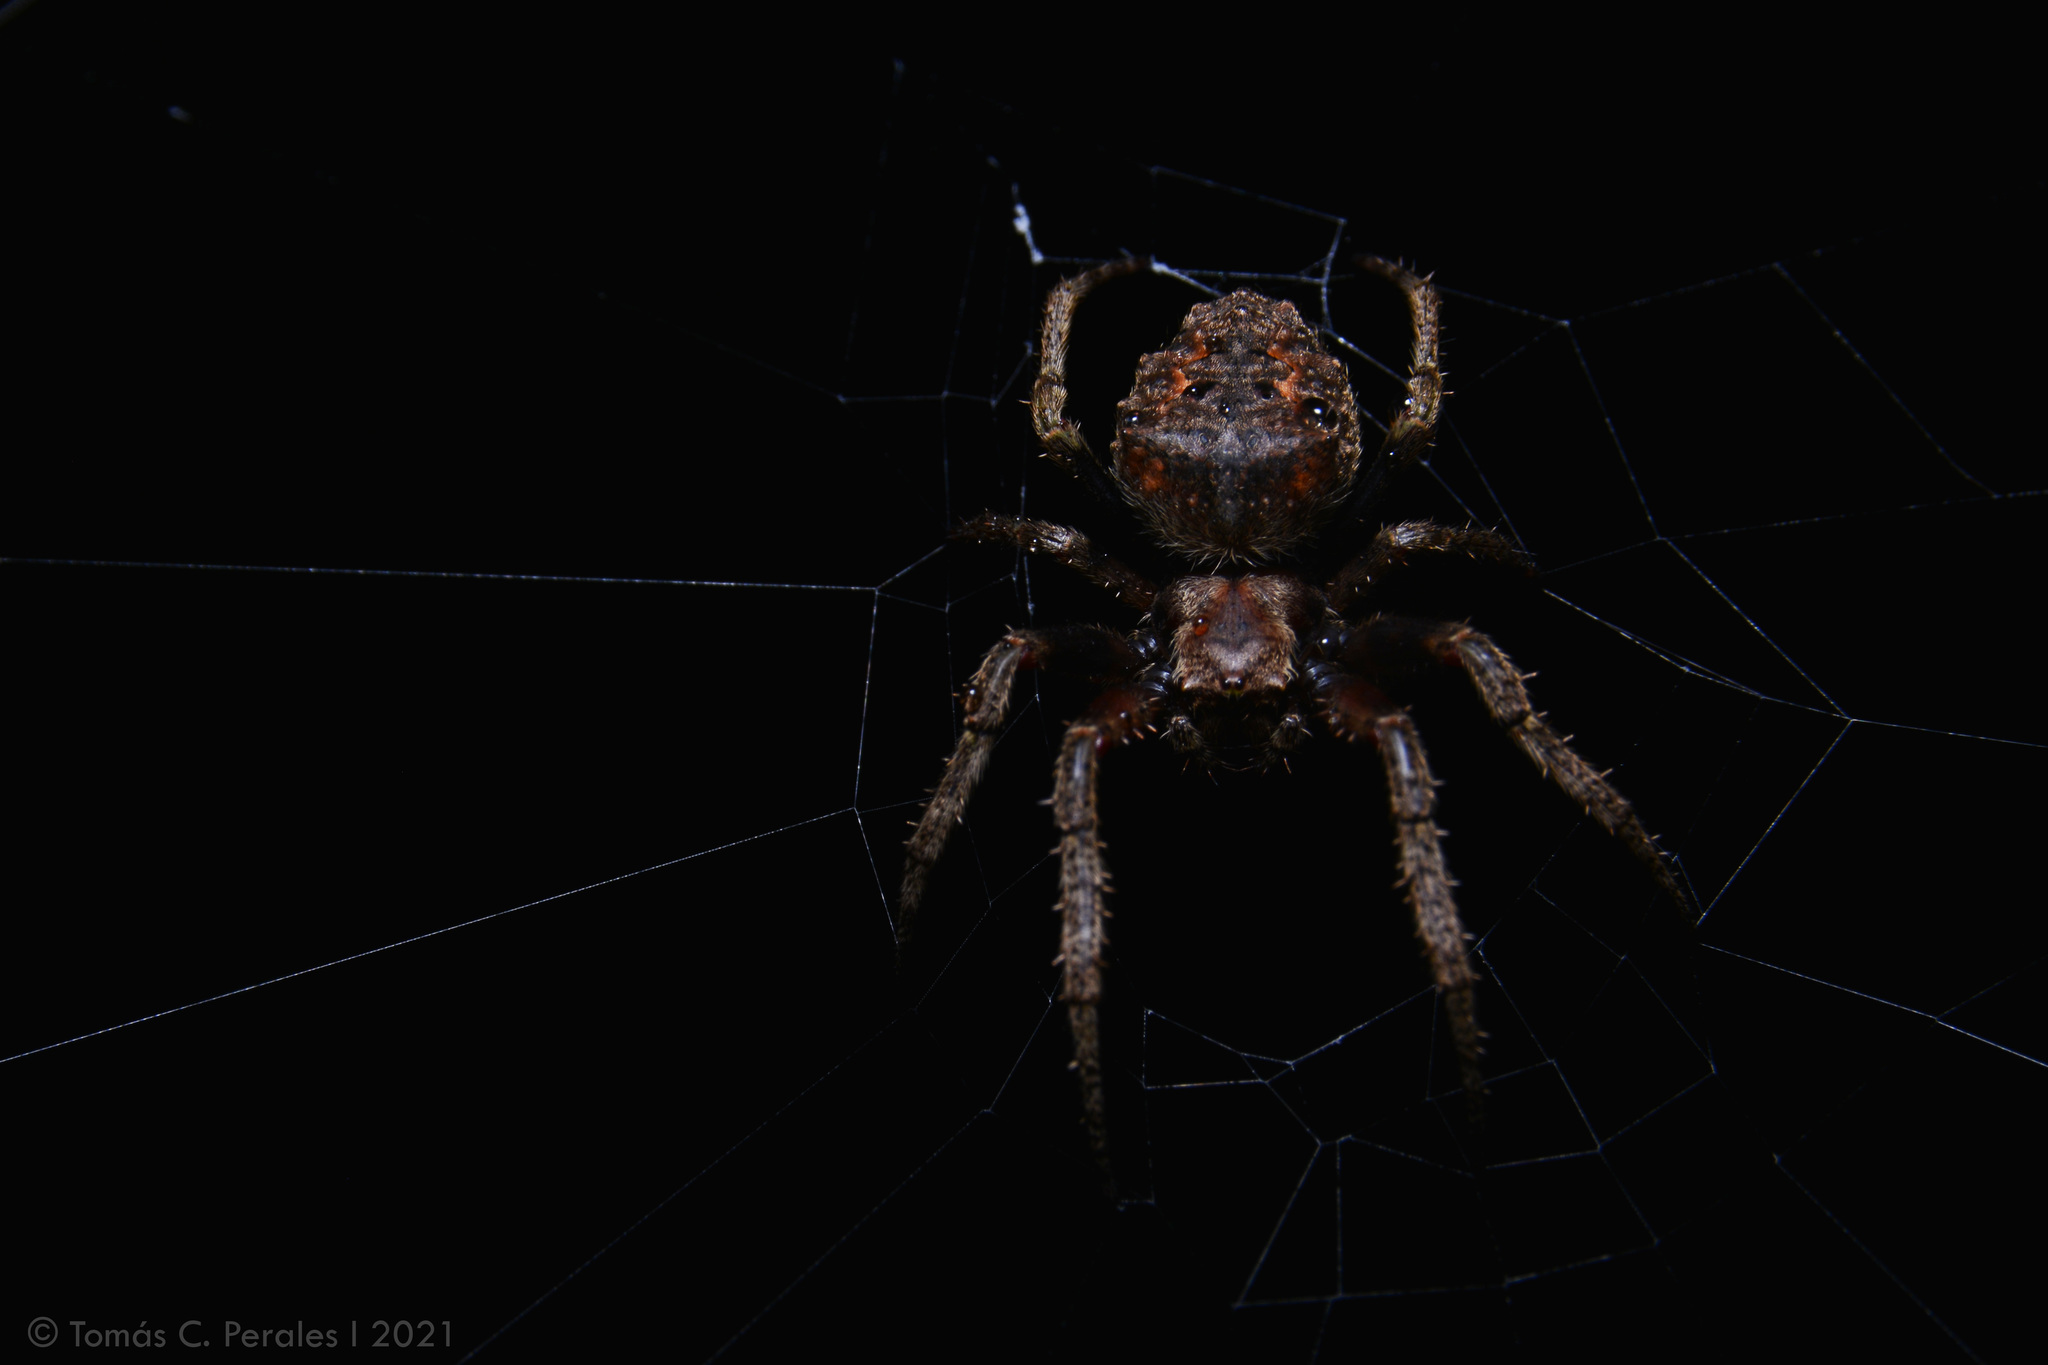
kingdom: Animalia
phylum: Arthropoda
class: Arachnida
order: Araneae
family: Araneidae
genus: Parawixia
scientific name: Parawixia audax
